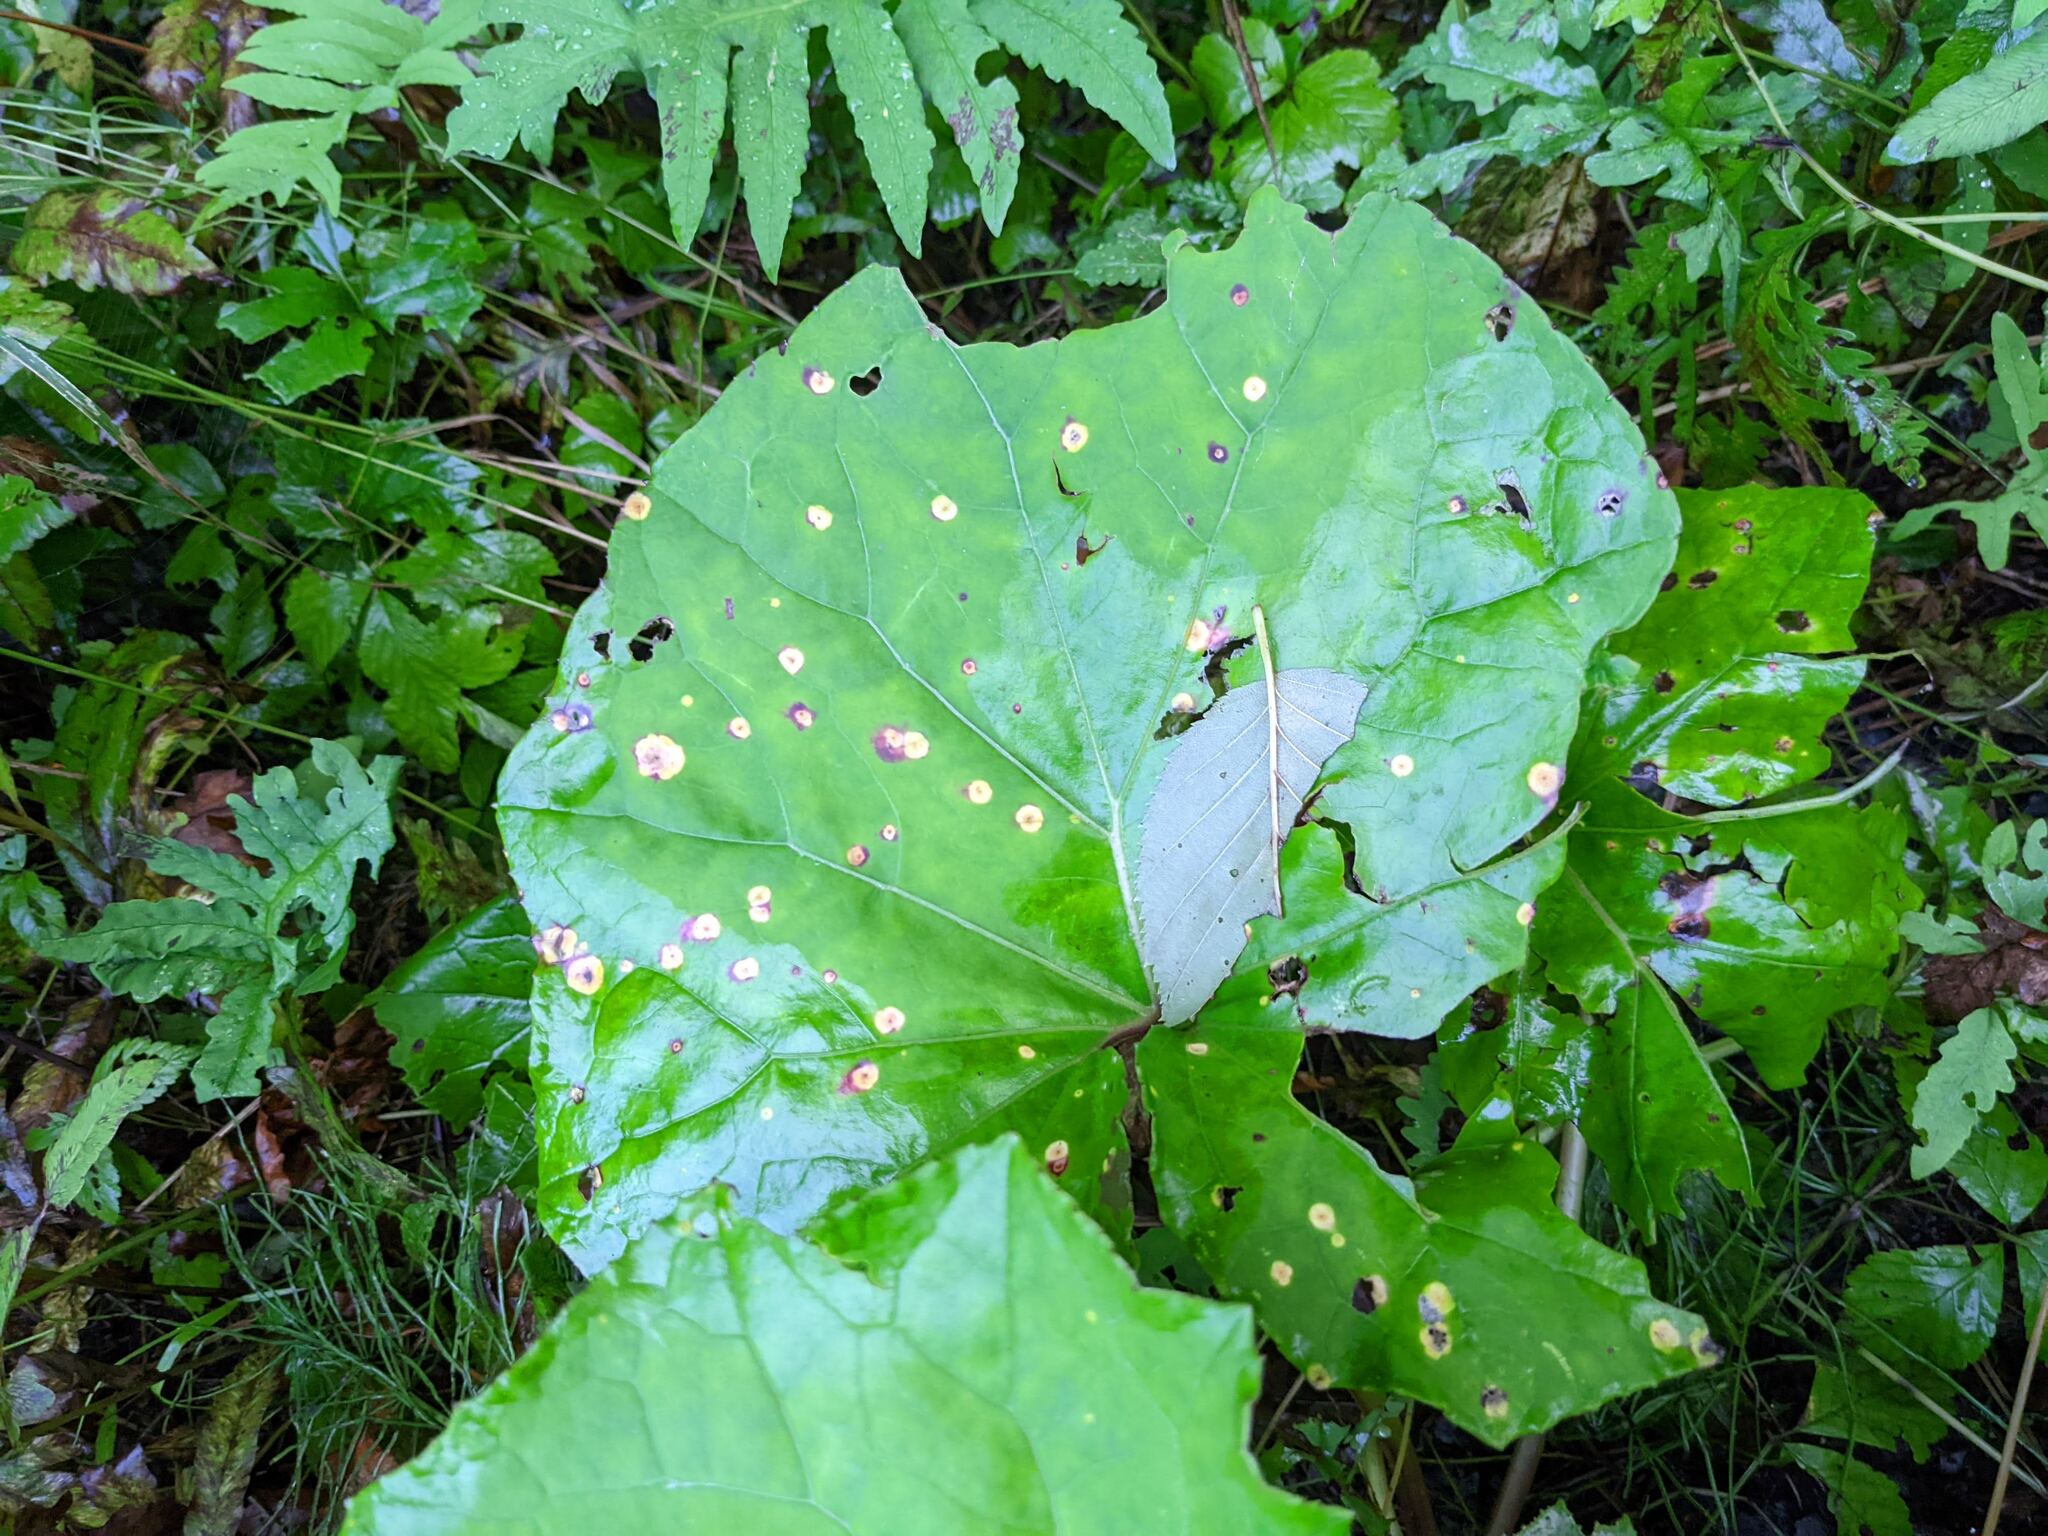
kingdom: Plantae
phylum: Tracheophyta
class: Magnoliopsida
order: Asterales
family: Asteraceae
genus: Tussilago
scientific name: Tussilago farfara
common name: Coltsfoot
